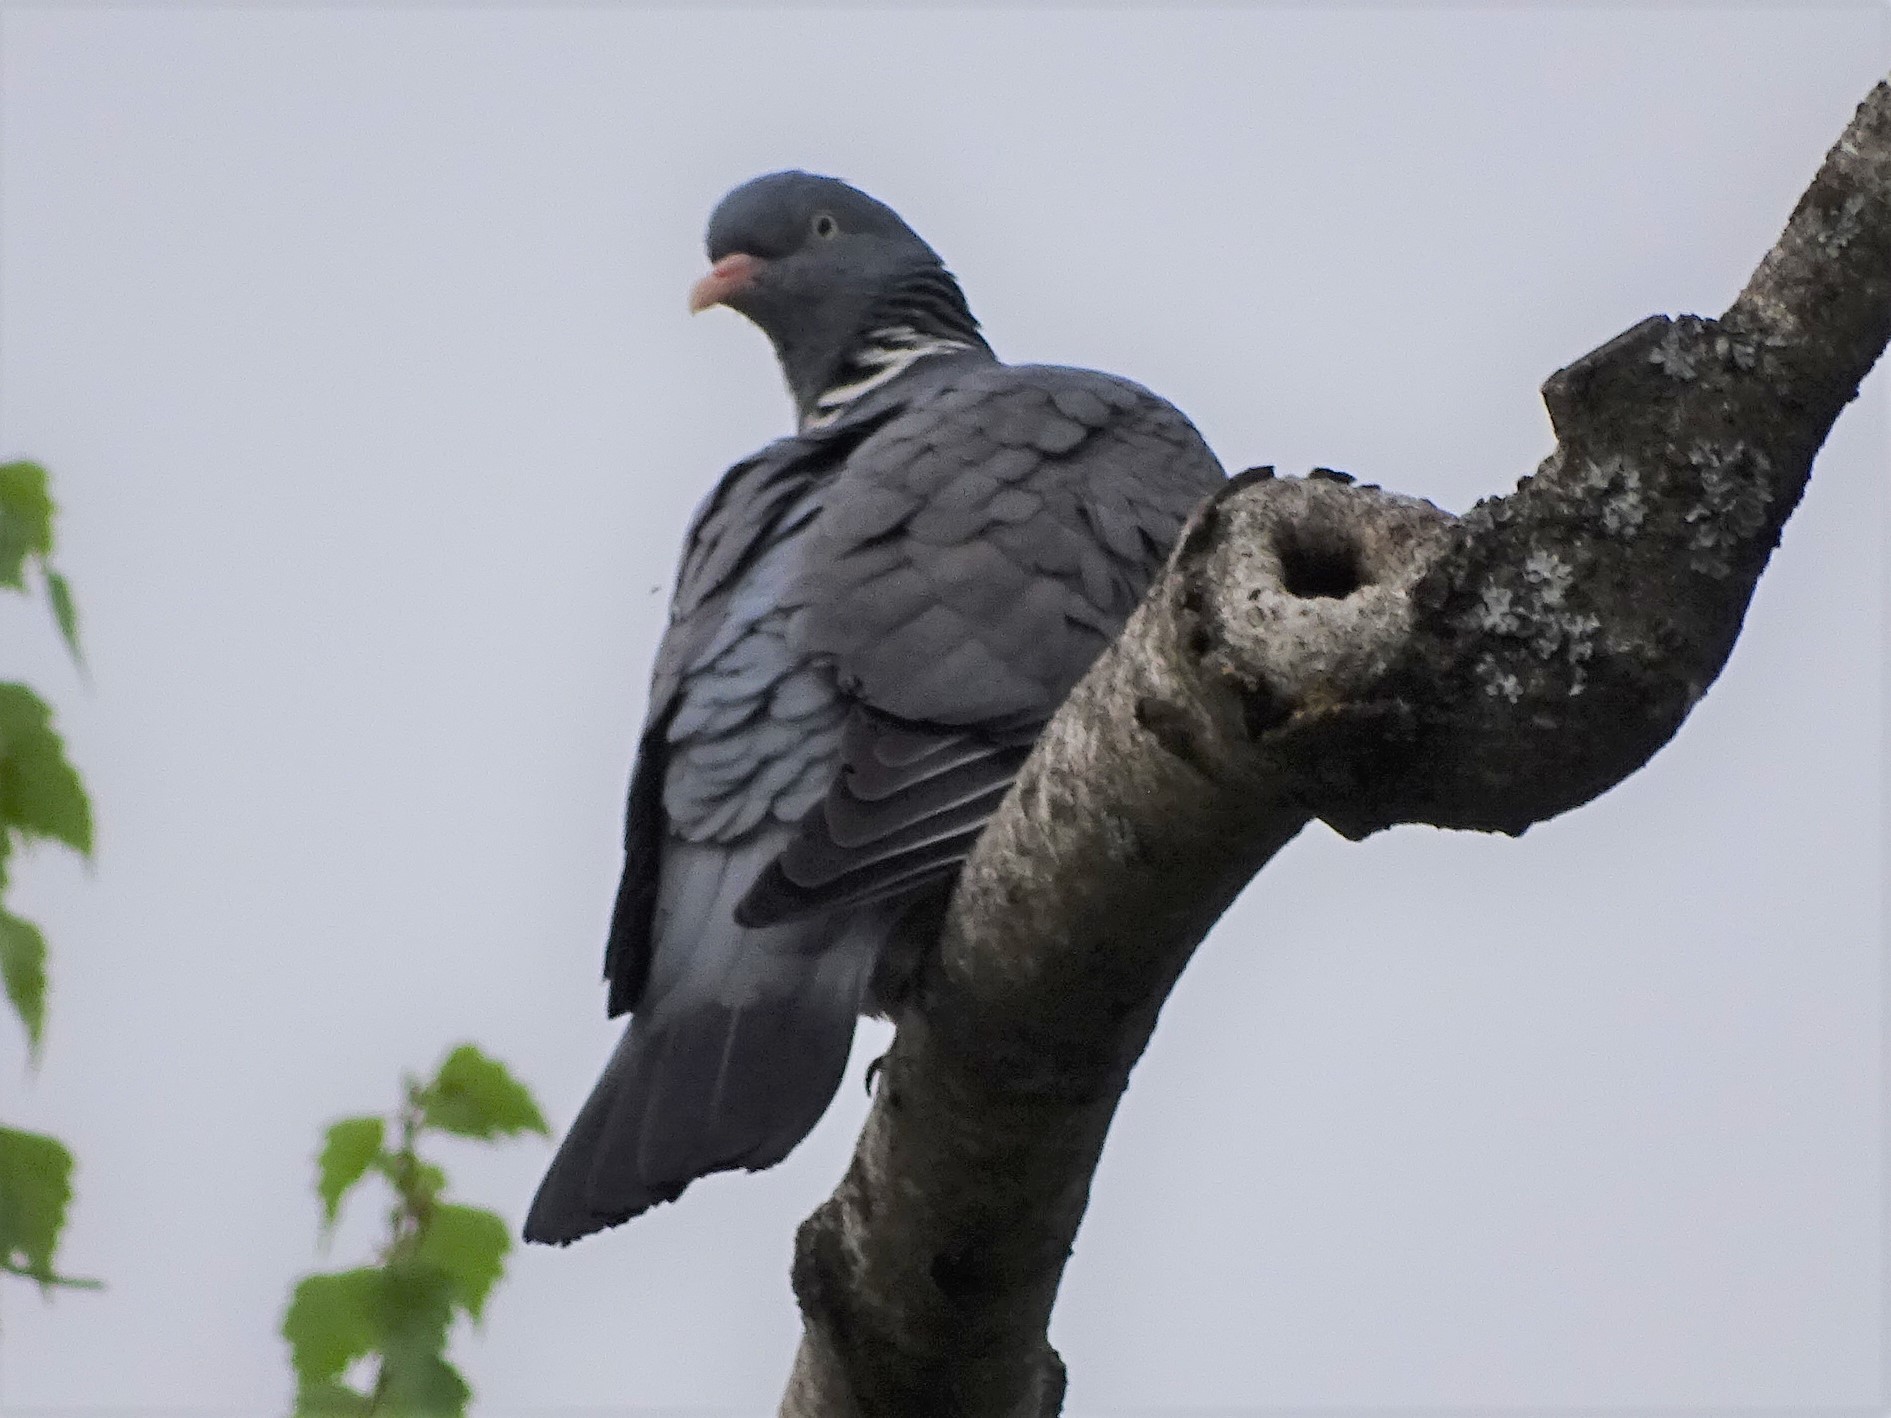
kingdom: Animalia
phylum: Chordata
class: Aves
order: Columbiformes
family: Columbidae
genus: Columba
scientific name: Columba palumbus
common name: Common wood pigeon
